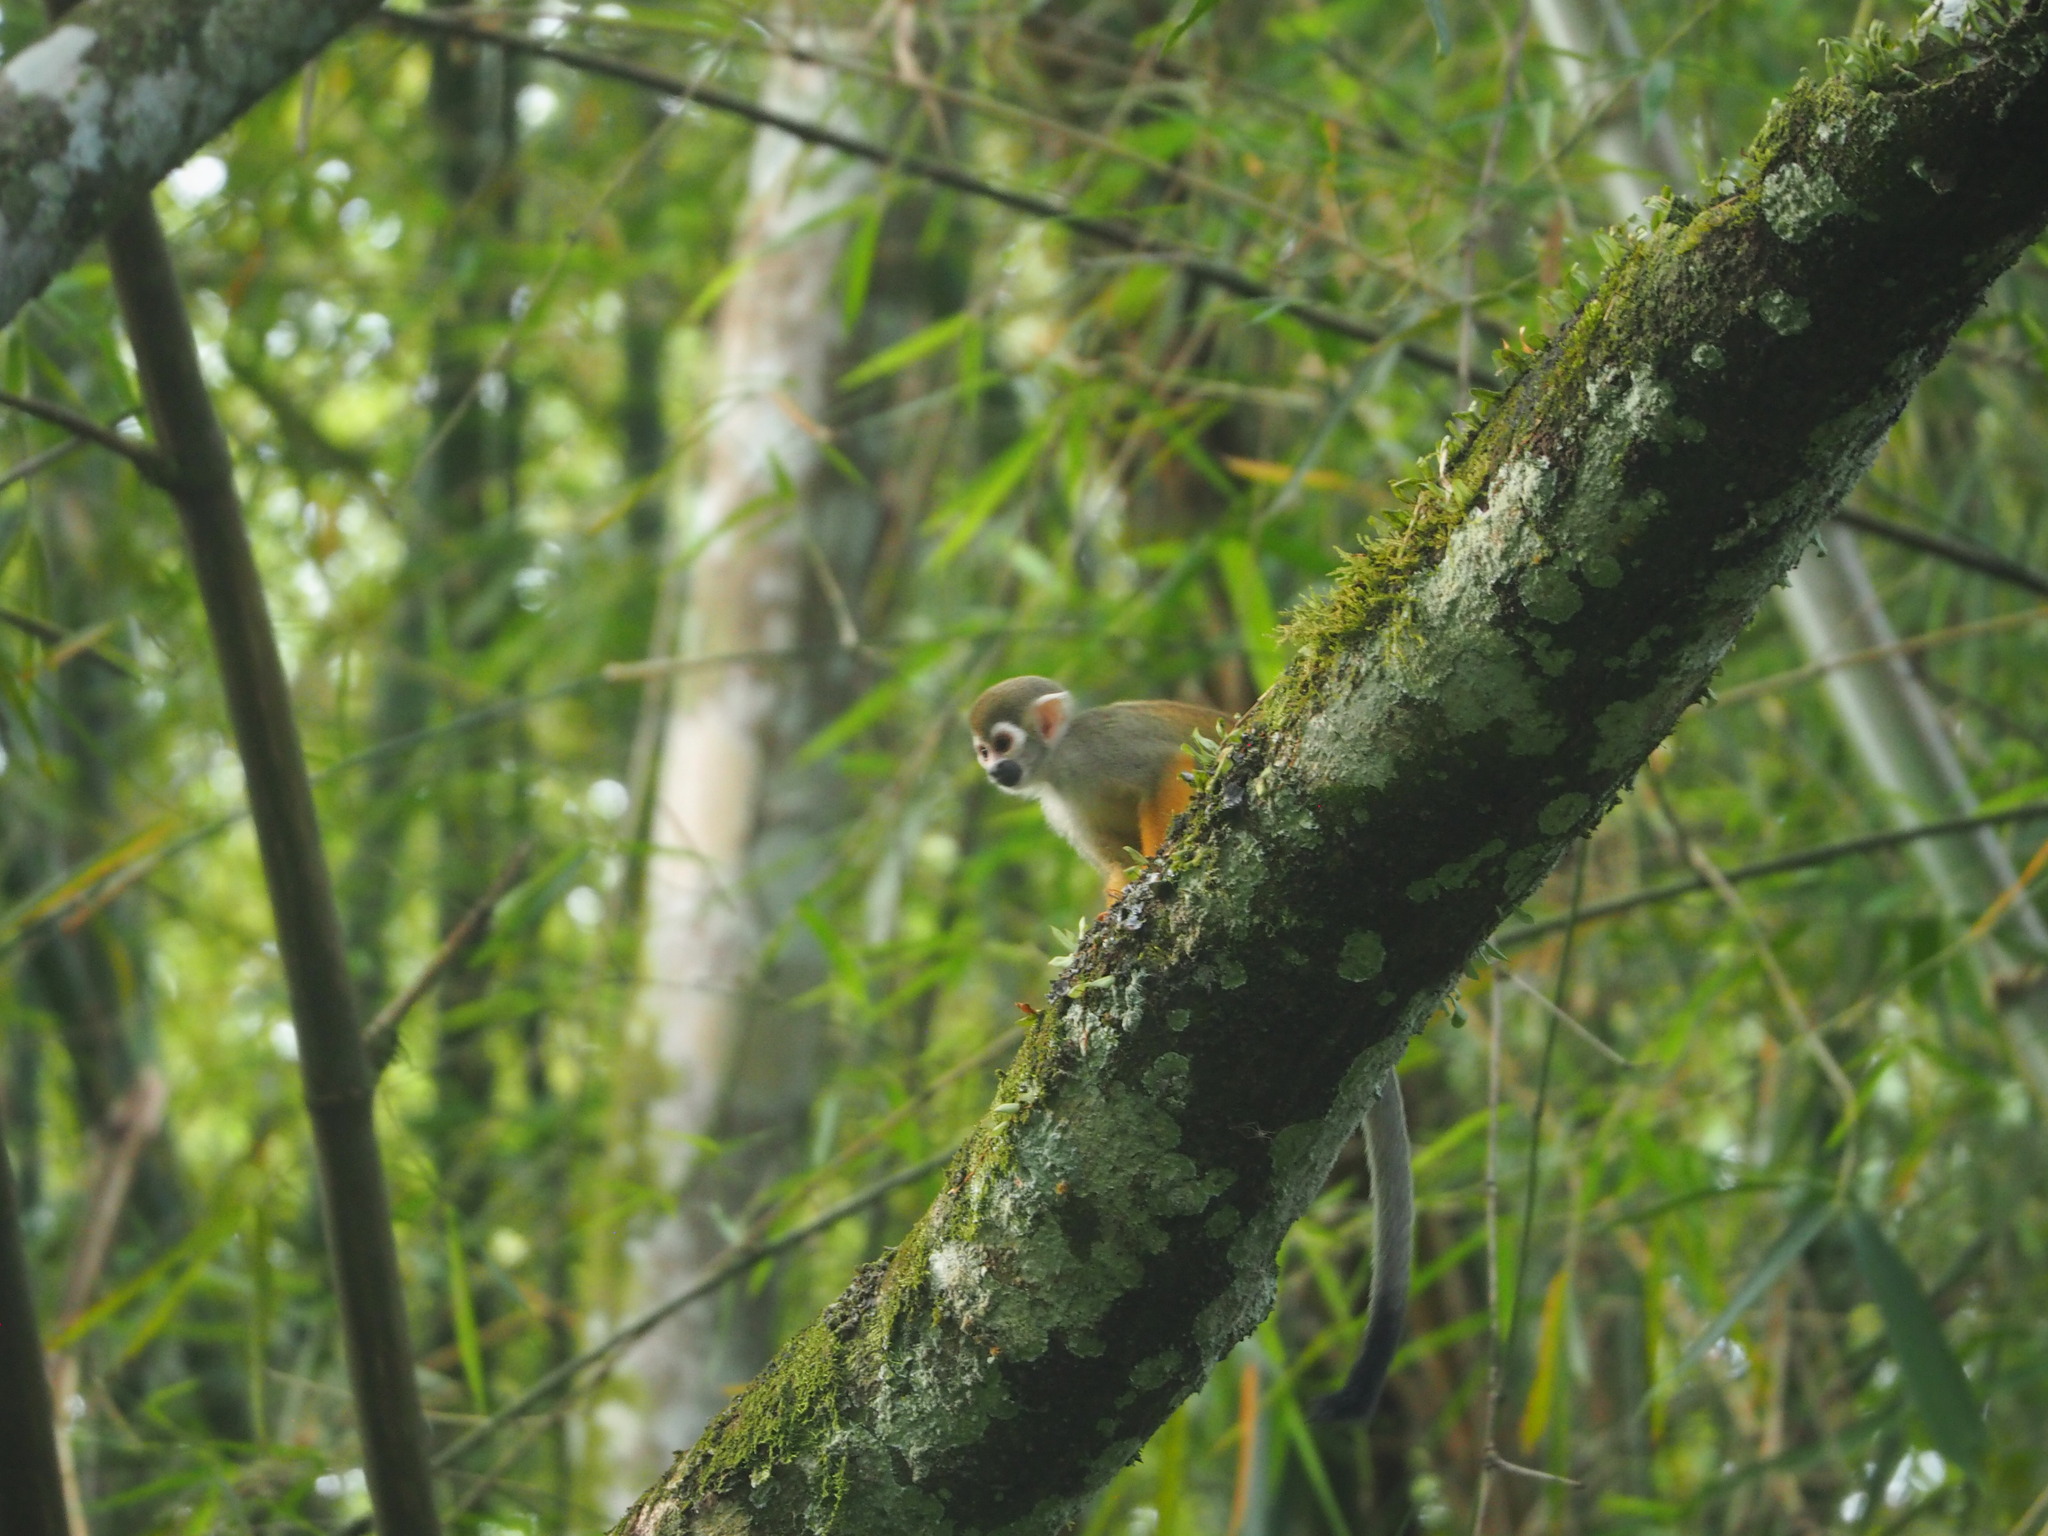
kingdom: Animalia
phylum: Chordata
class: Mammalia
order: Primates
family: Cebidae
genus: Saimiri
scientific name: Saimiri sciureus
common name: Common squirrel monkey
